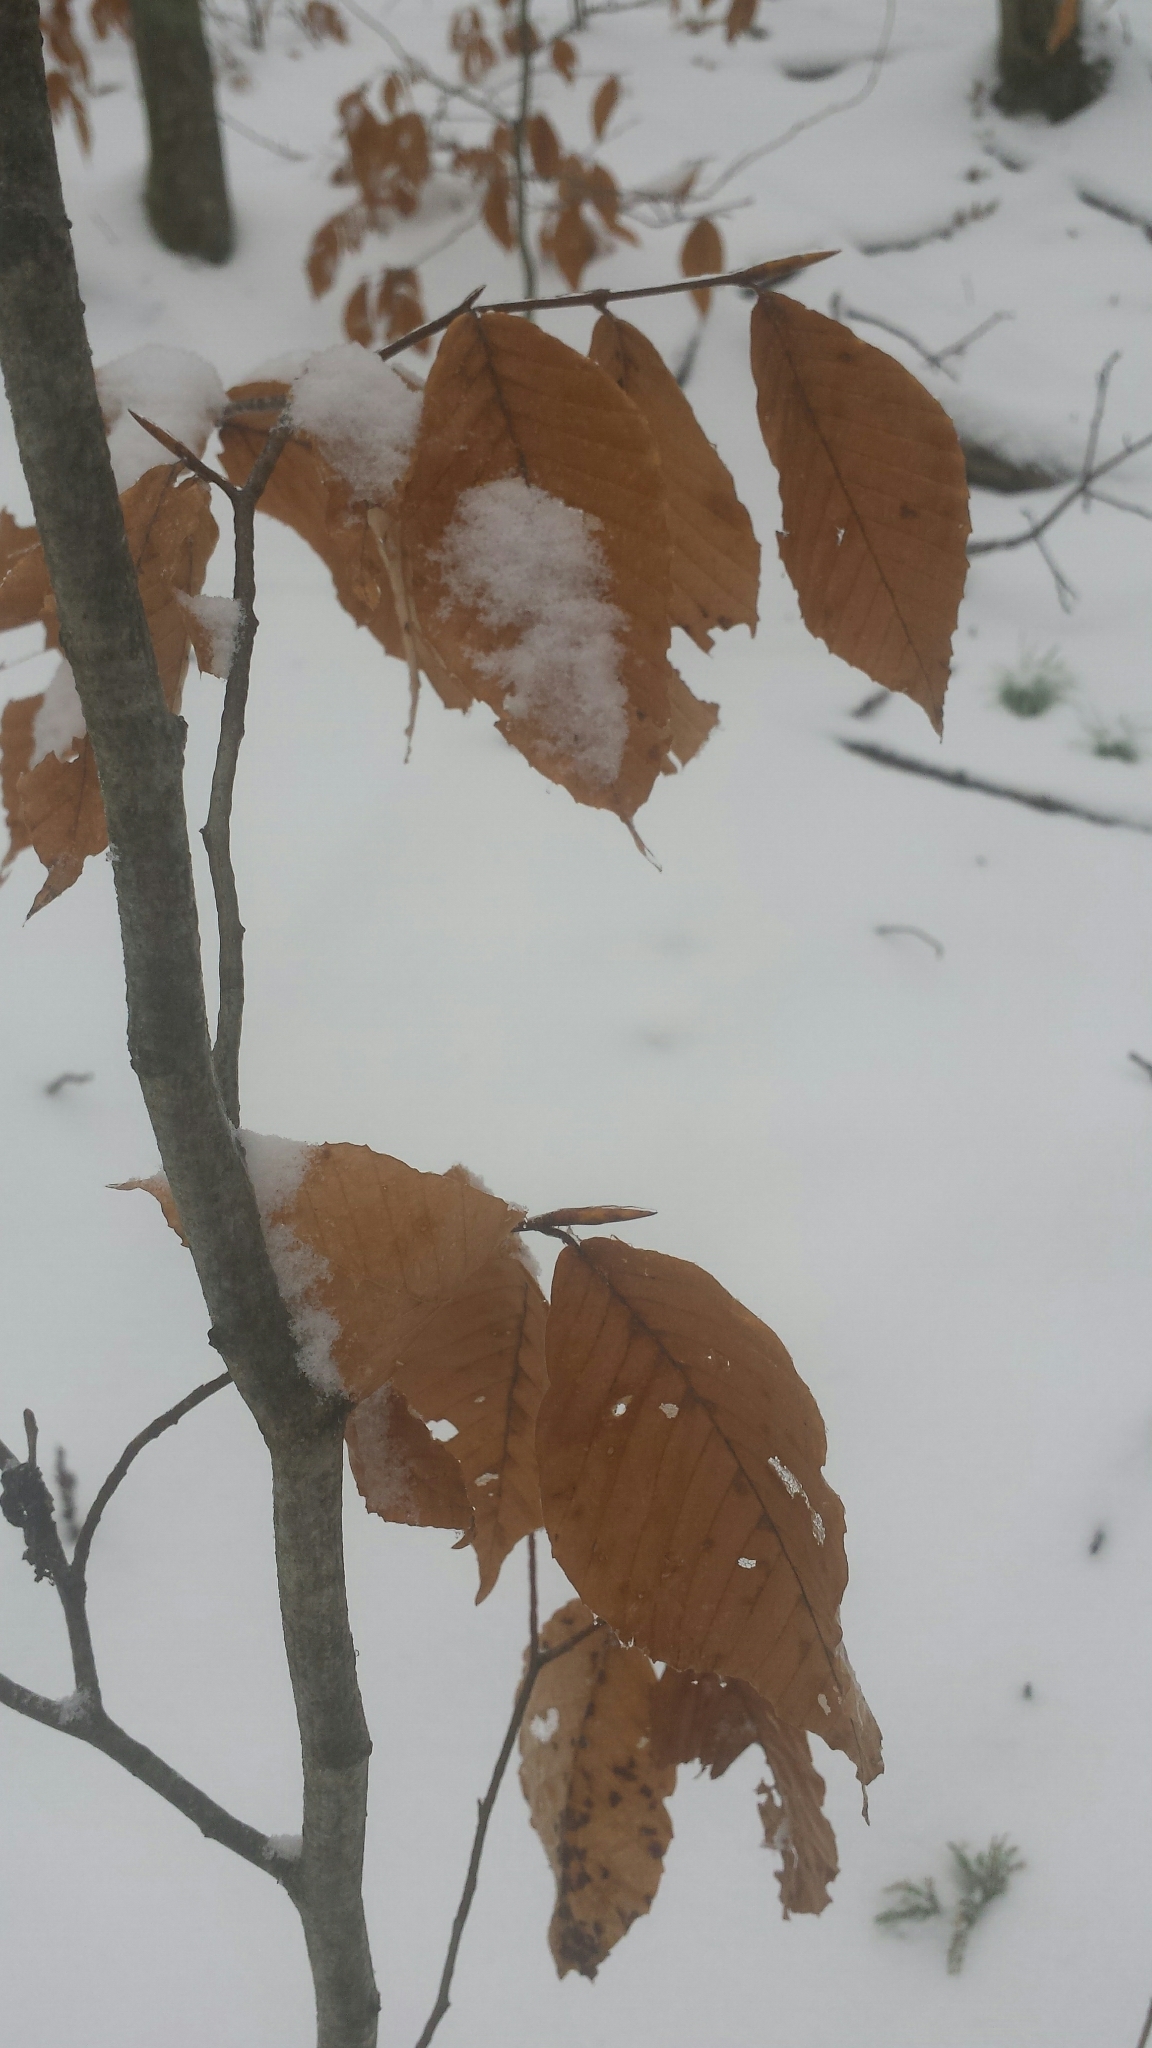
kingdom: Plantae
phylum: Tracheophyta
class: Magnoliopsida
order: Fagales
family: Fagaceae
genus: Fagus
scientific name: Fagus grandifolia
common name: American beech
